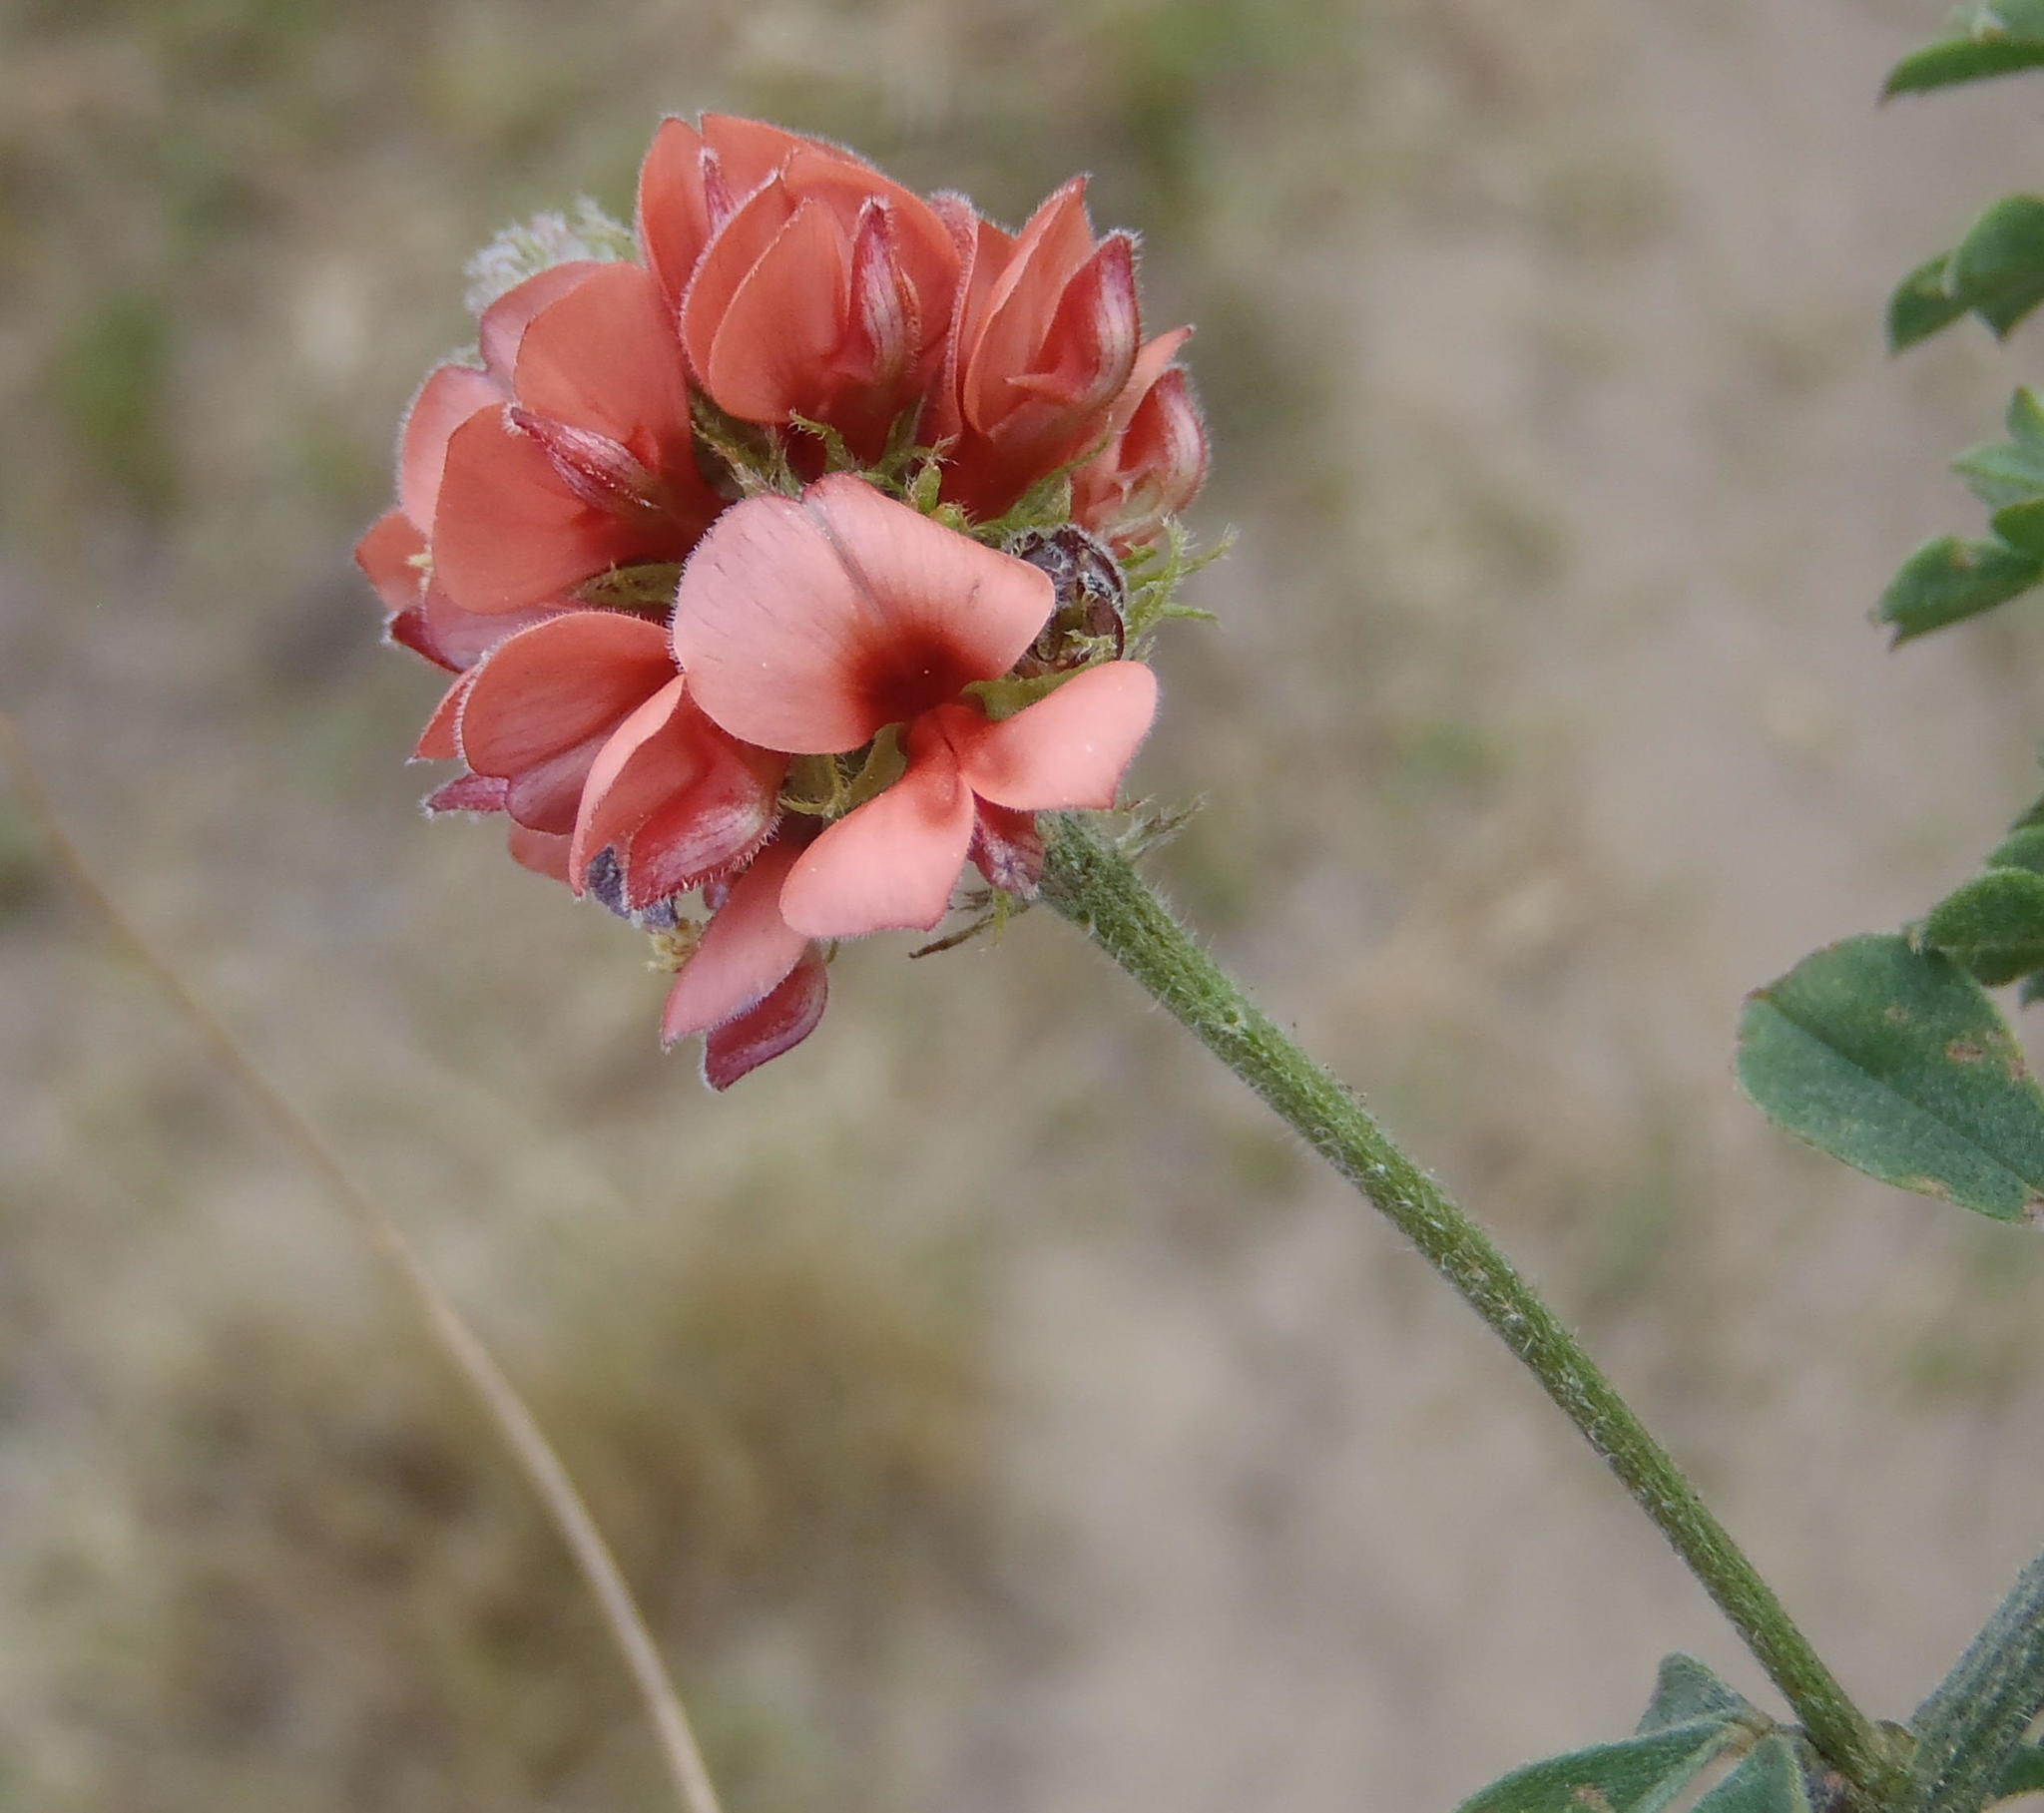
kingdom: Plantae
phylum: Tracheophyta
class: Magnoliopsida
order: Fabales
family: Fabaceae
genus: Indigofera
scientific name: Indigofera porrecta
